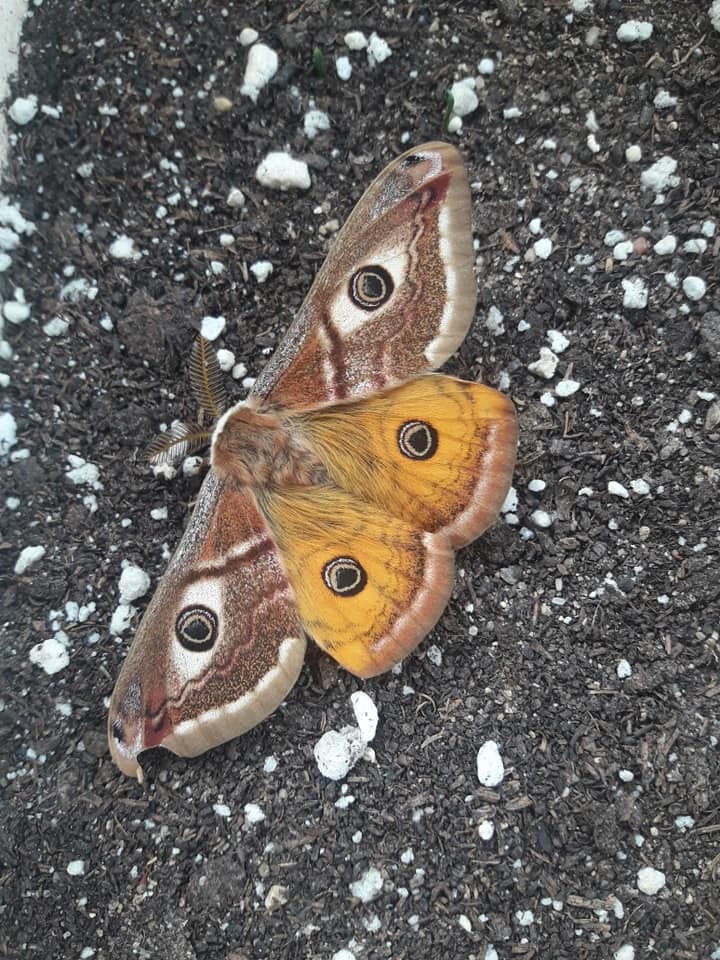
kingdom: Animalia
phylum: Arthropoda
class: Insecta
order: Lepidoptera
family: Saturniidae
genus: Saturnia
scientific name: Saturnia pavoniella
